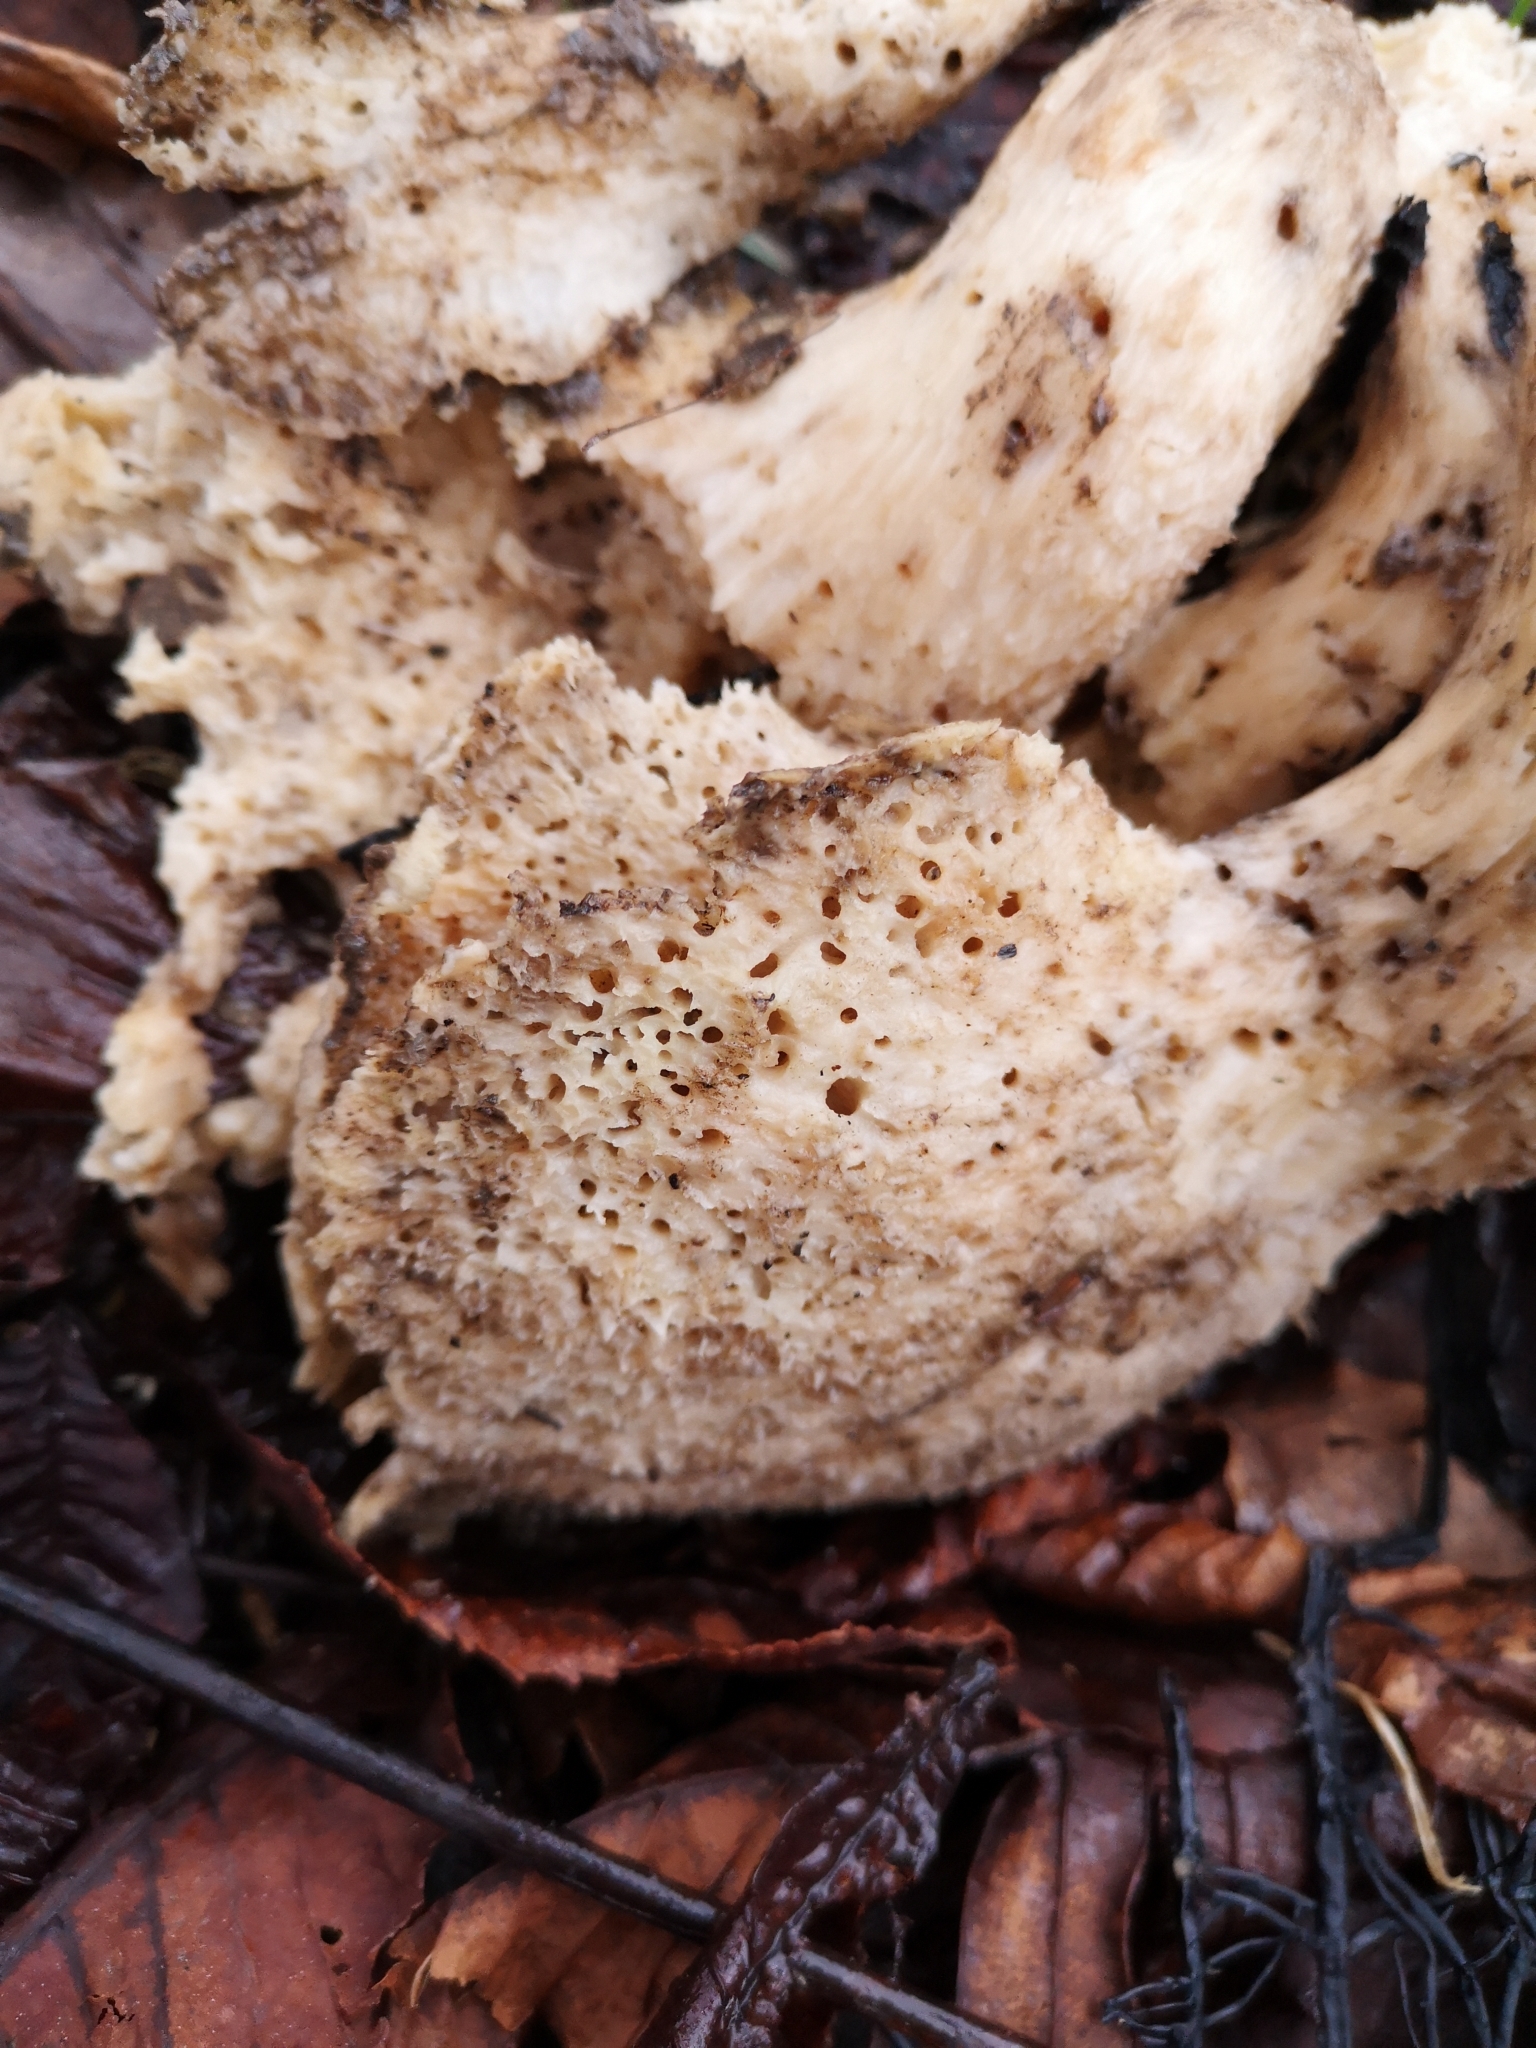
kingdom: Fungi
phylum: Basidiomycota
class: Agaricomycetes
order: Russulales
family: Hericiaceae
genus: Hericium
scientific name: Hericium cirrhatum
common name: Tiered tooth
